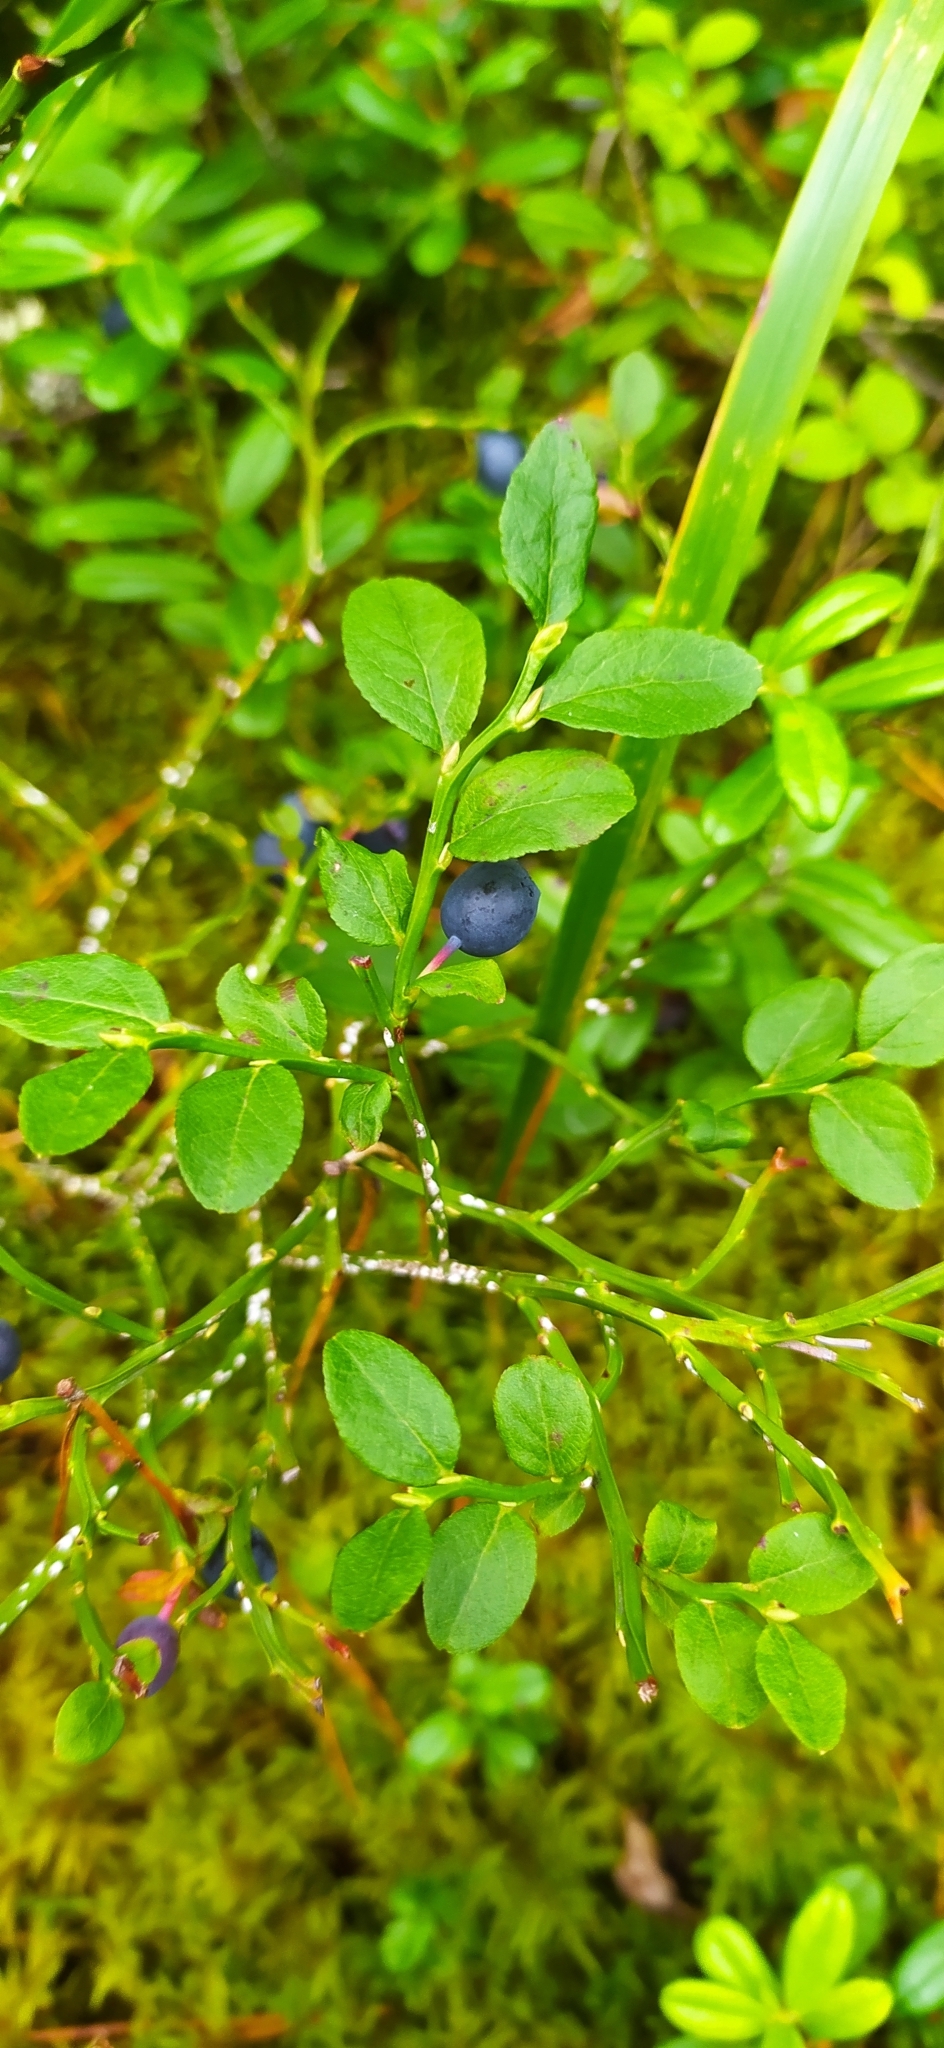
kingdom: Plantae
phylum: Tracheophyta
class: Magnoliopsida
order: Ericales
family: Ericaceae
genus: Vaccinium
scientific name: Vaccinium myrtillus
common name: Bilberry
